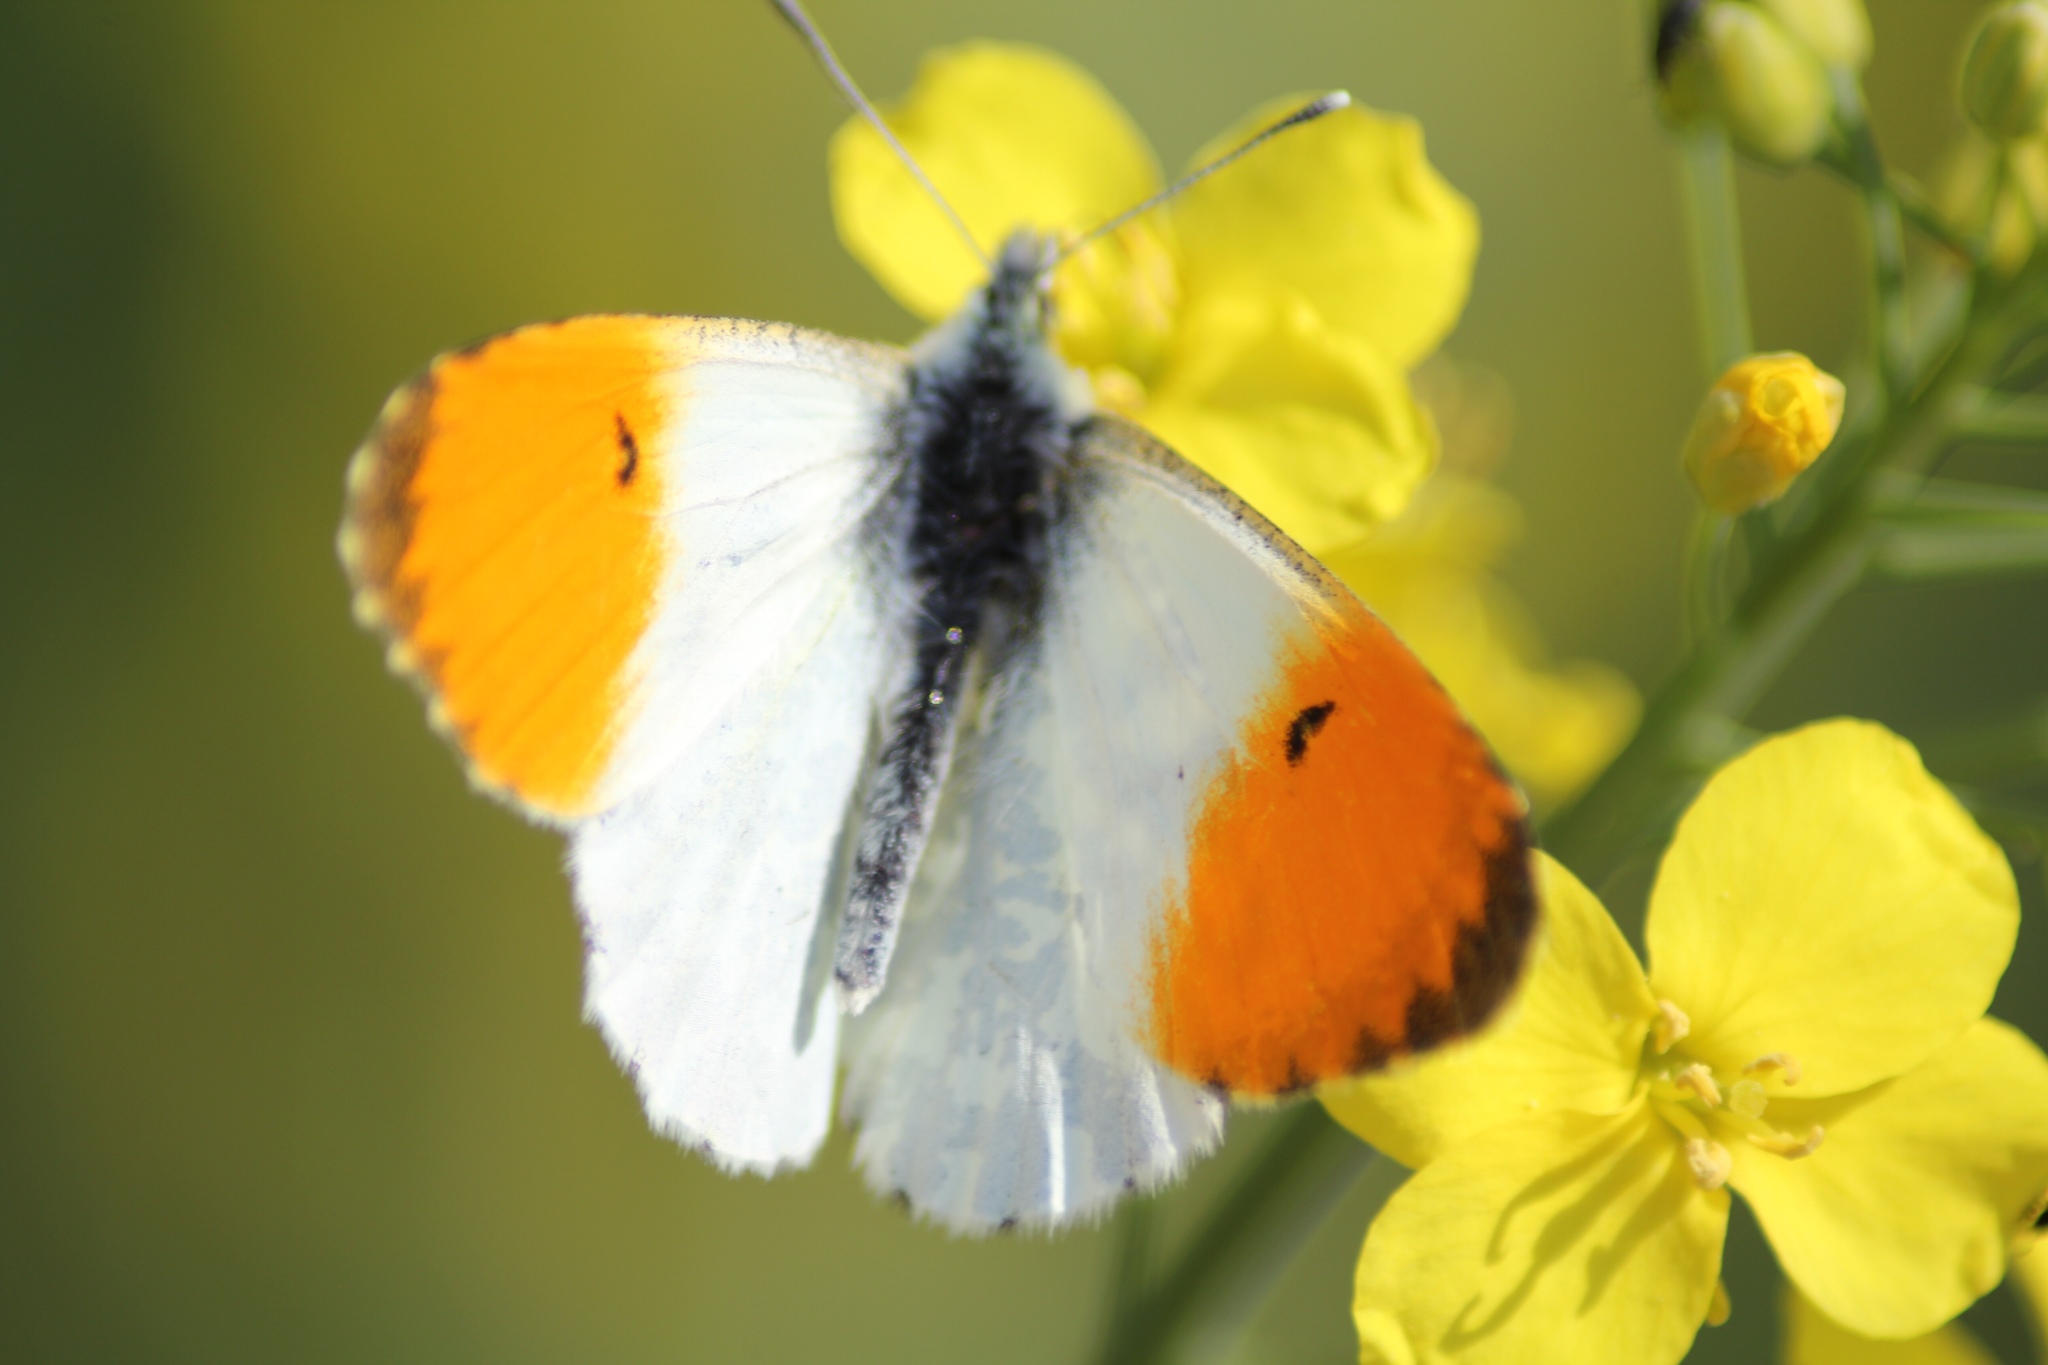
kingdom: Animalia
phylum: Arthropoda
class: Insecta
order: Lepidoptera
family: Pieridae
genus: Anthocharis
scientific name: Anthocharis cardamines
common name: Orange-tip
